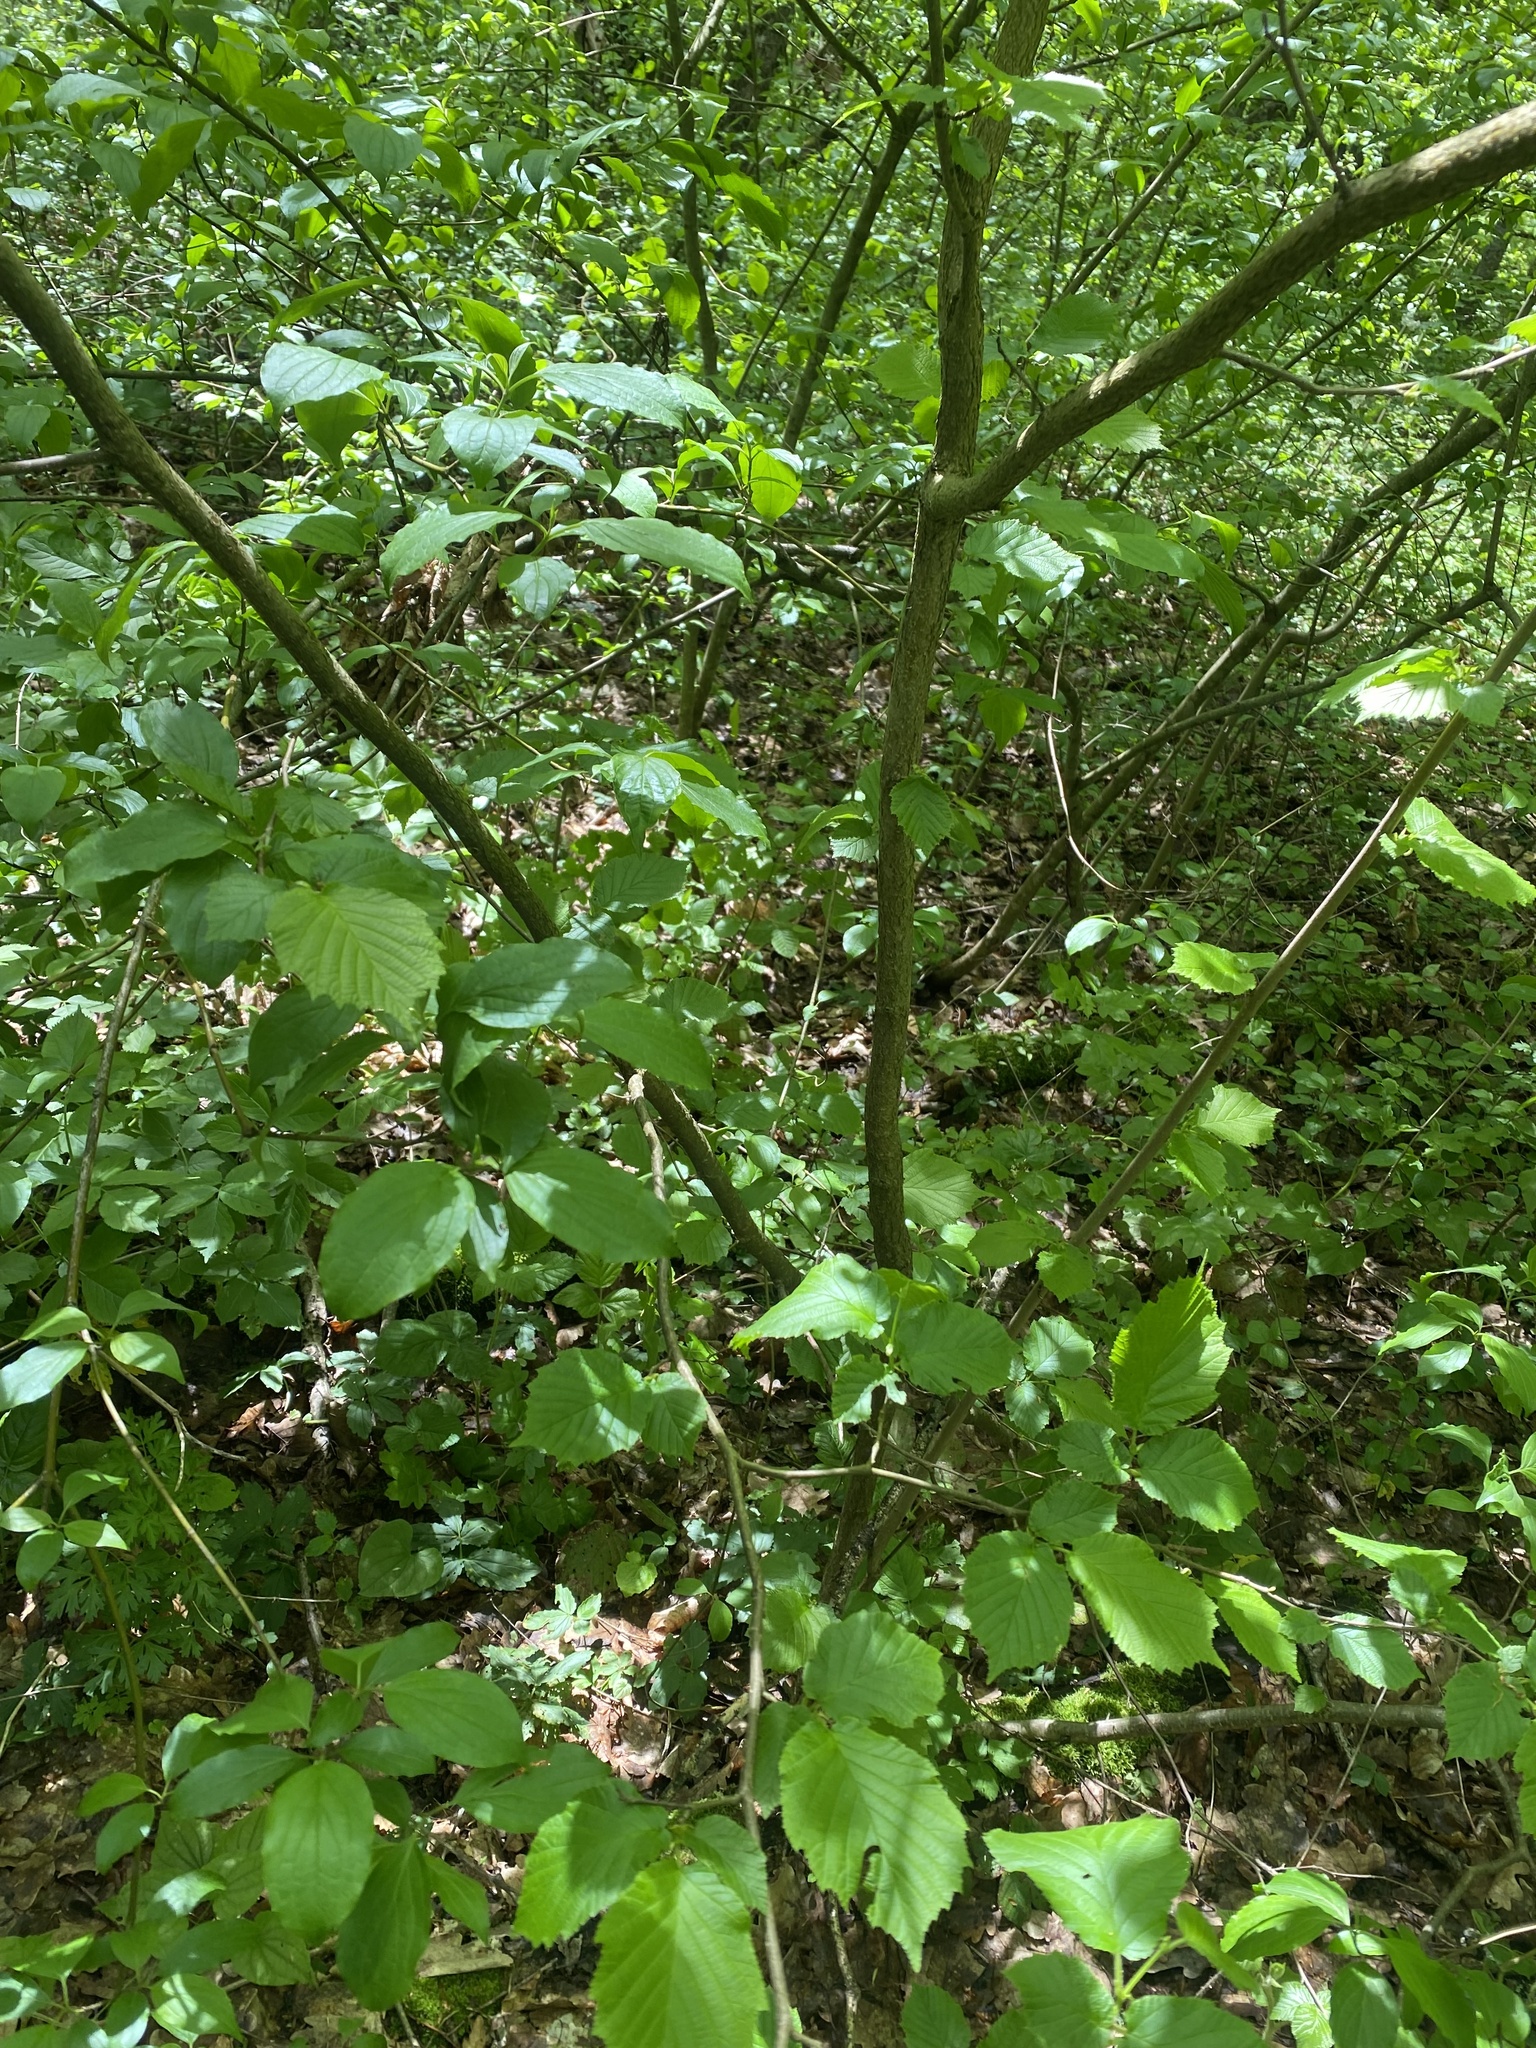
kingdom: Plantae
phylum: Tracheophyta
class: Magnoliopsida
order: Fagales
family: Betulaceae
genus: Corylus
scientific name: Corylus avellana
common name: European hazel
